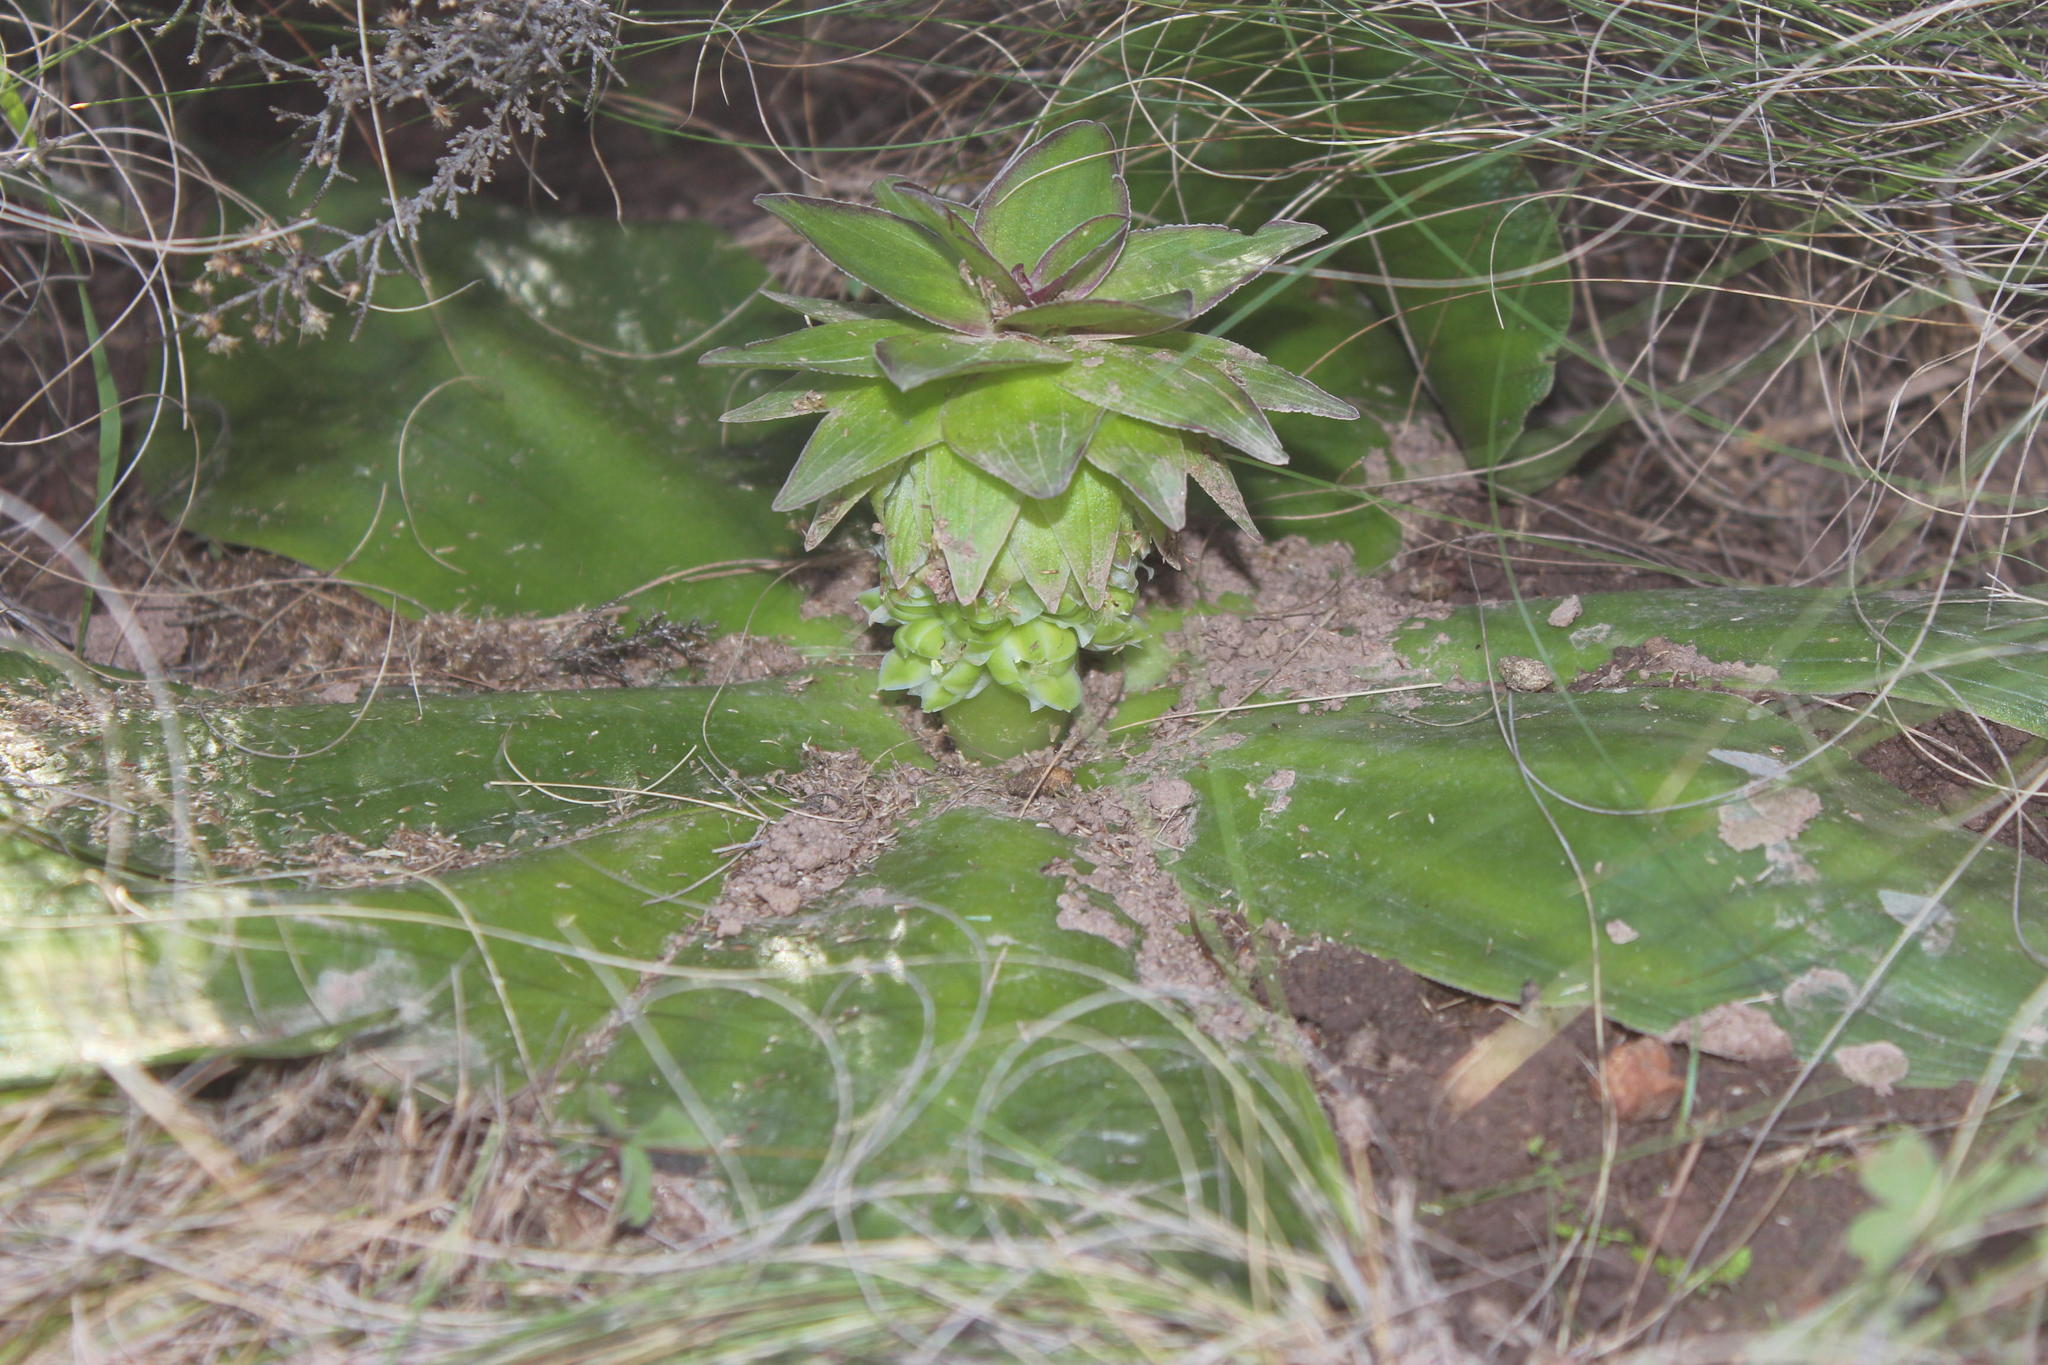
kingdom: Plantae
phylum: Tracheophyta
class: Liliopsida
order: Asparagales
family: Asparagaceae
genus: Eucomis
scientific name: Eucomis regia
